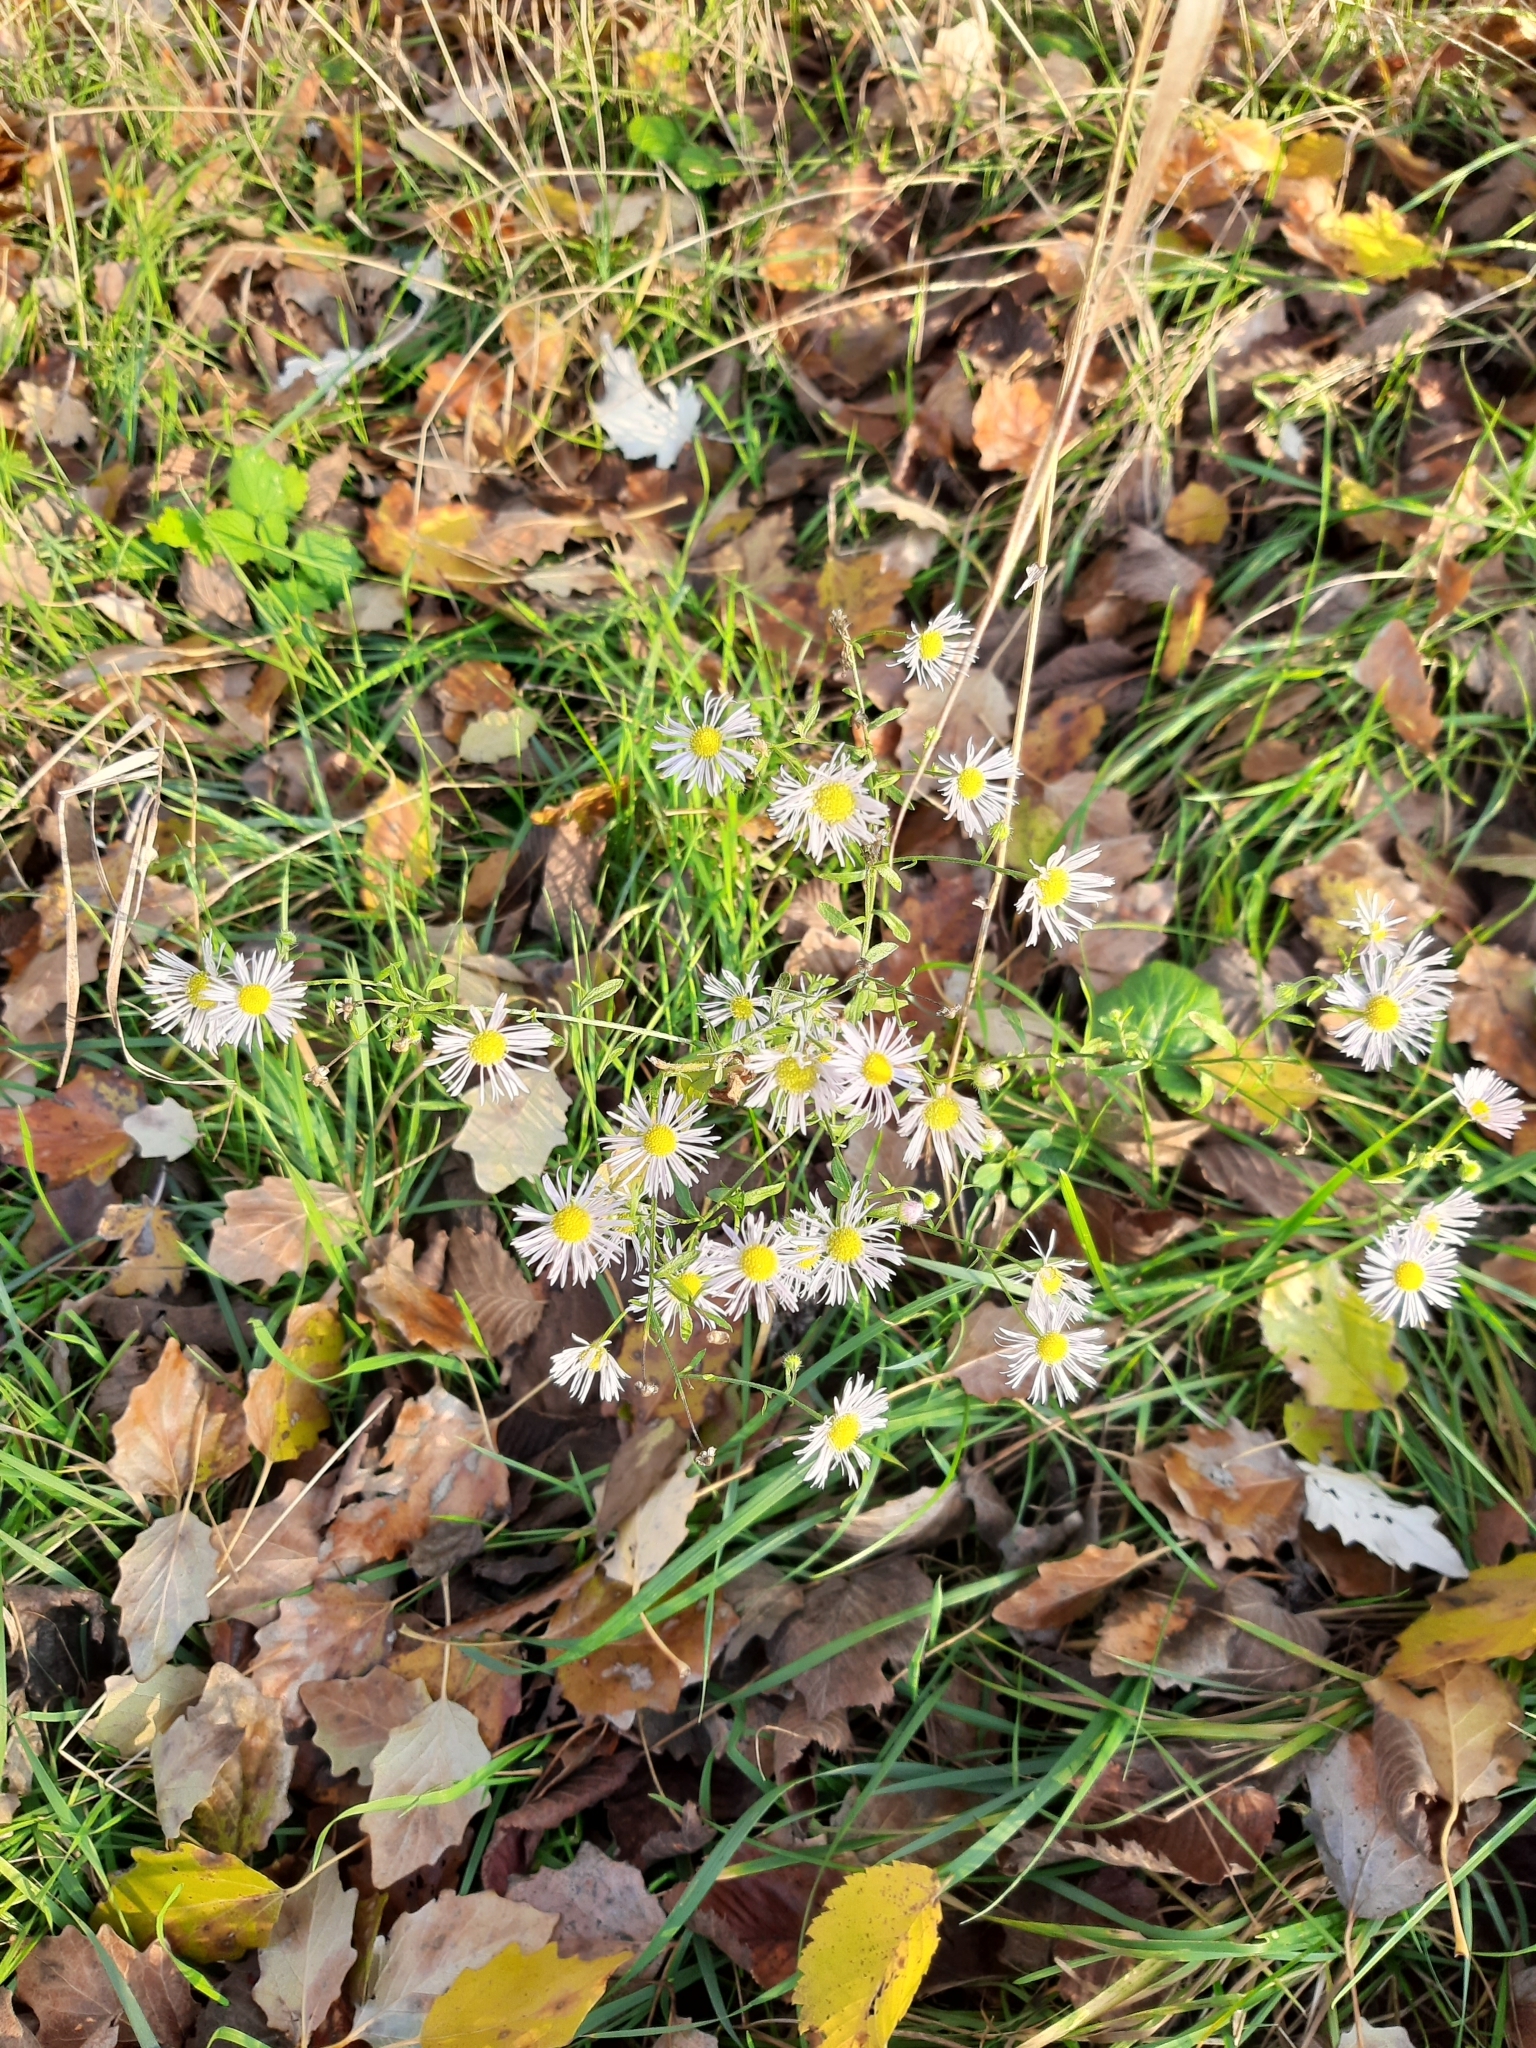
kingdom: Plantae
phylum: Tracheophyta
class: Magnoliopsida
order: Asterales
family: Asteraceae
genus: Erigeron
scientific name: Erigeron annuus
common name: Tall fleabane
